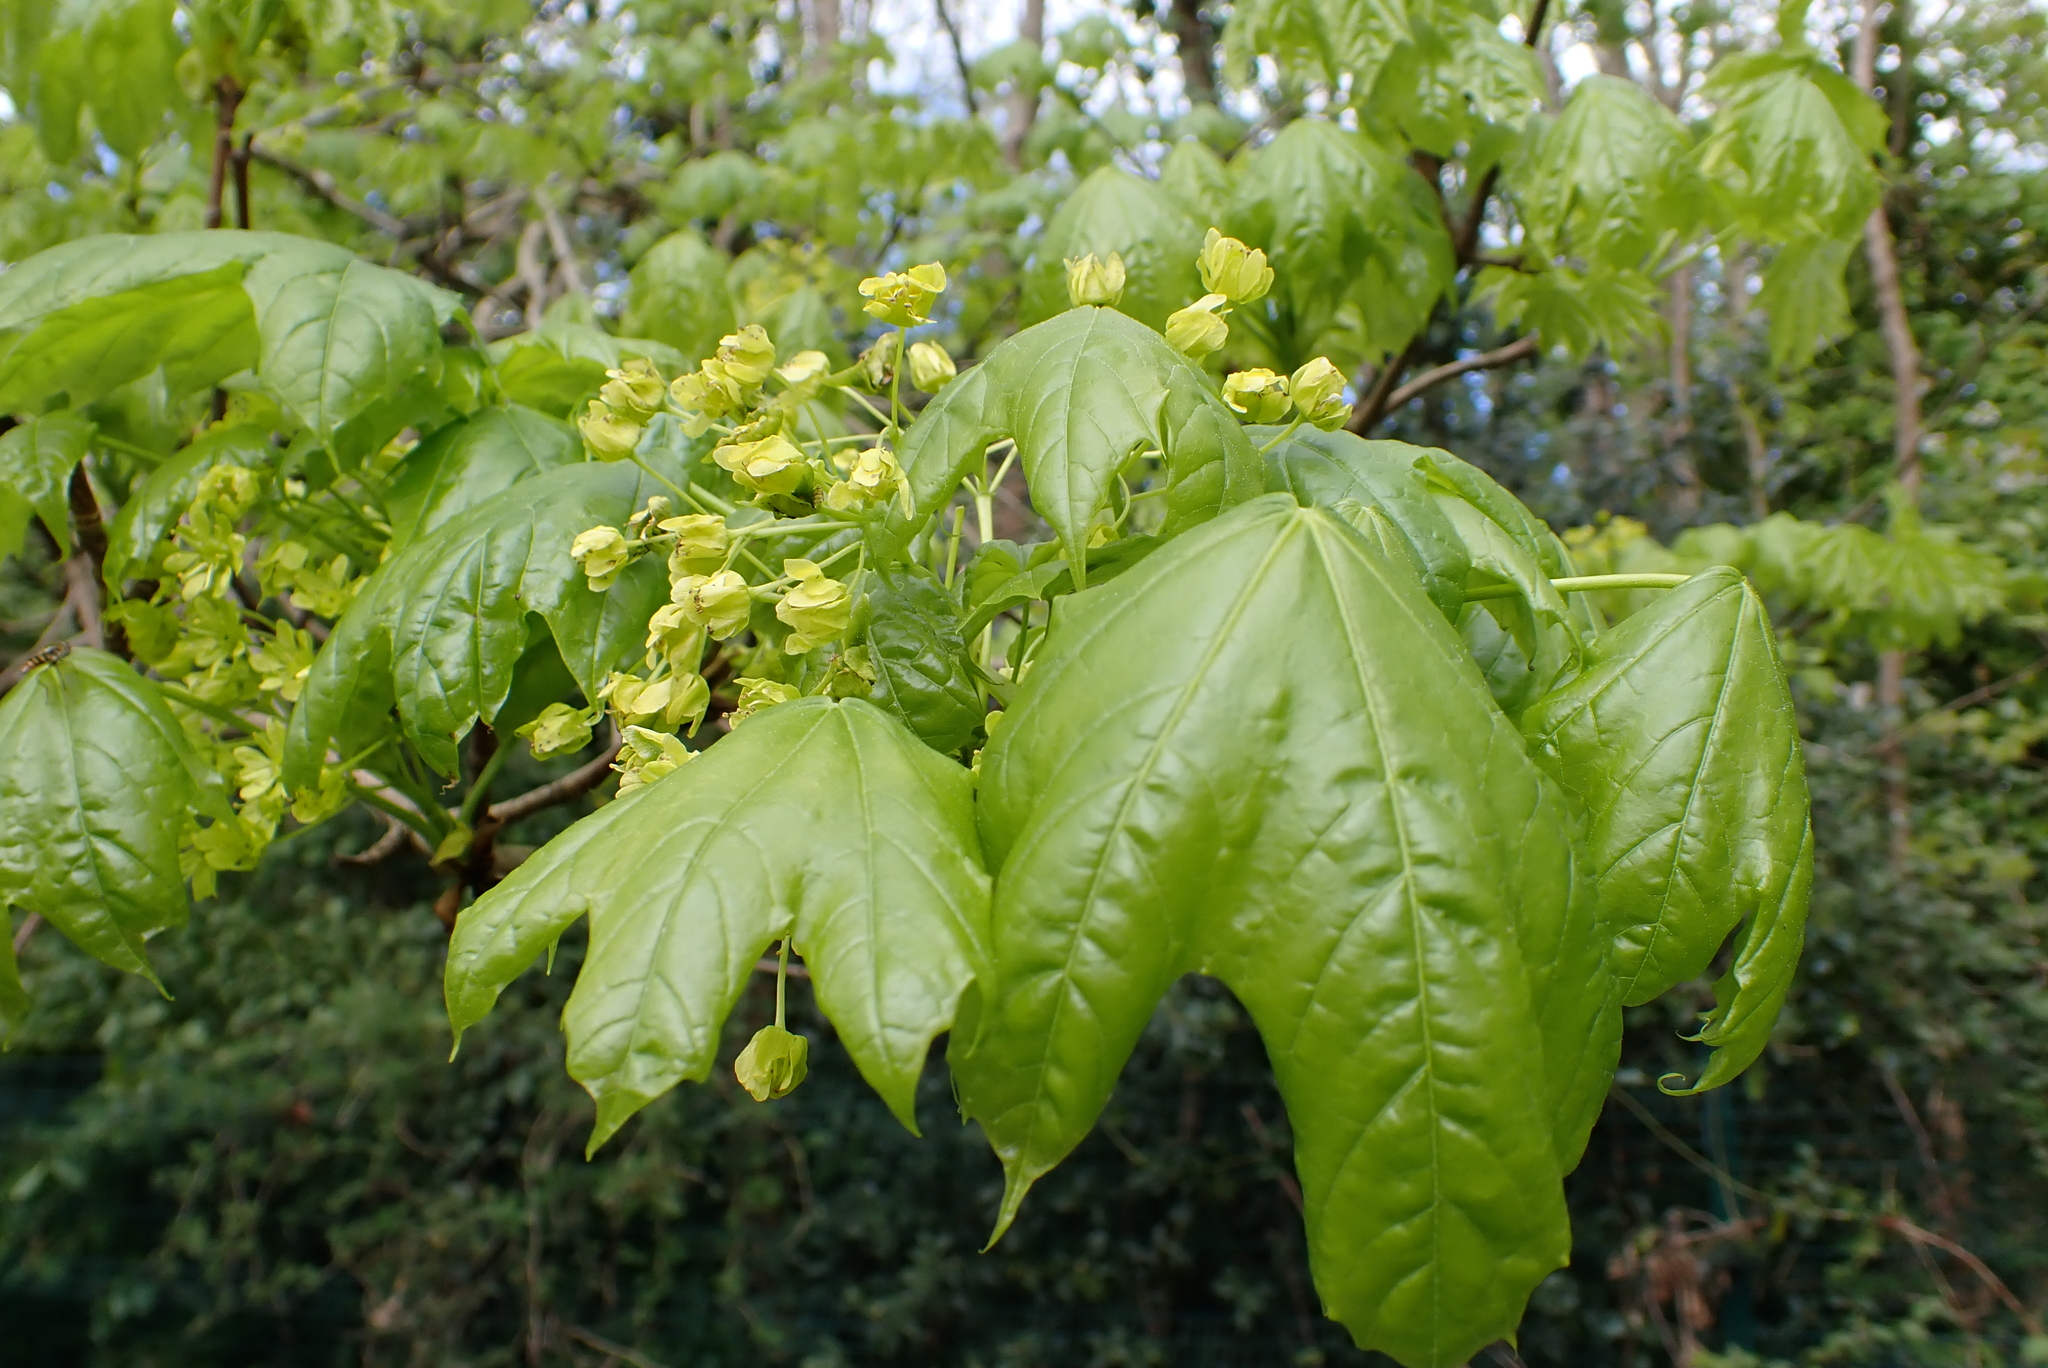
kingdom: Plantae
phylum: Tracheophyta
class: Magnoliopsida
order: Sapindales
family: Sapindaceae
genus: Acer
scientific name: Acer platanoides
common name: Norway maple
